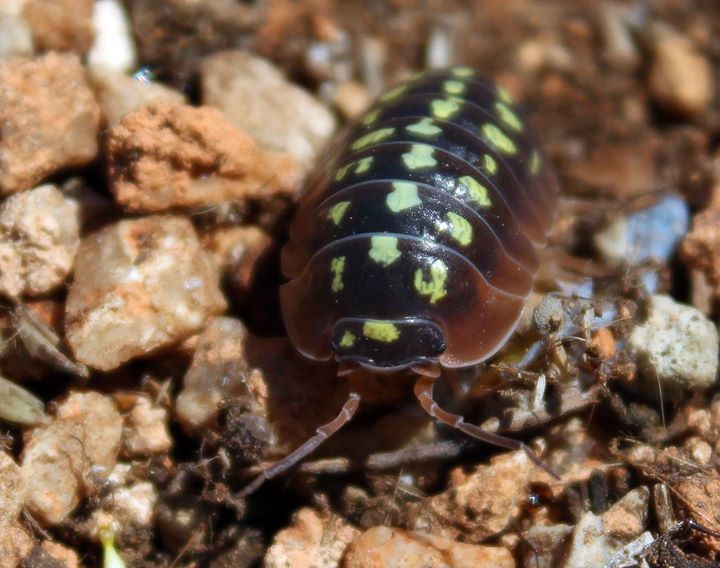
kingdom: Animalia
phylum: Arthropoda
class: Malacostraca
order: Isopoda
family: Armadillidiidae
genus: Armadillidium
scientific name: Armadillidium klugii
